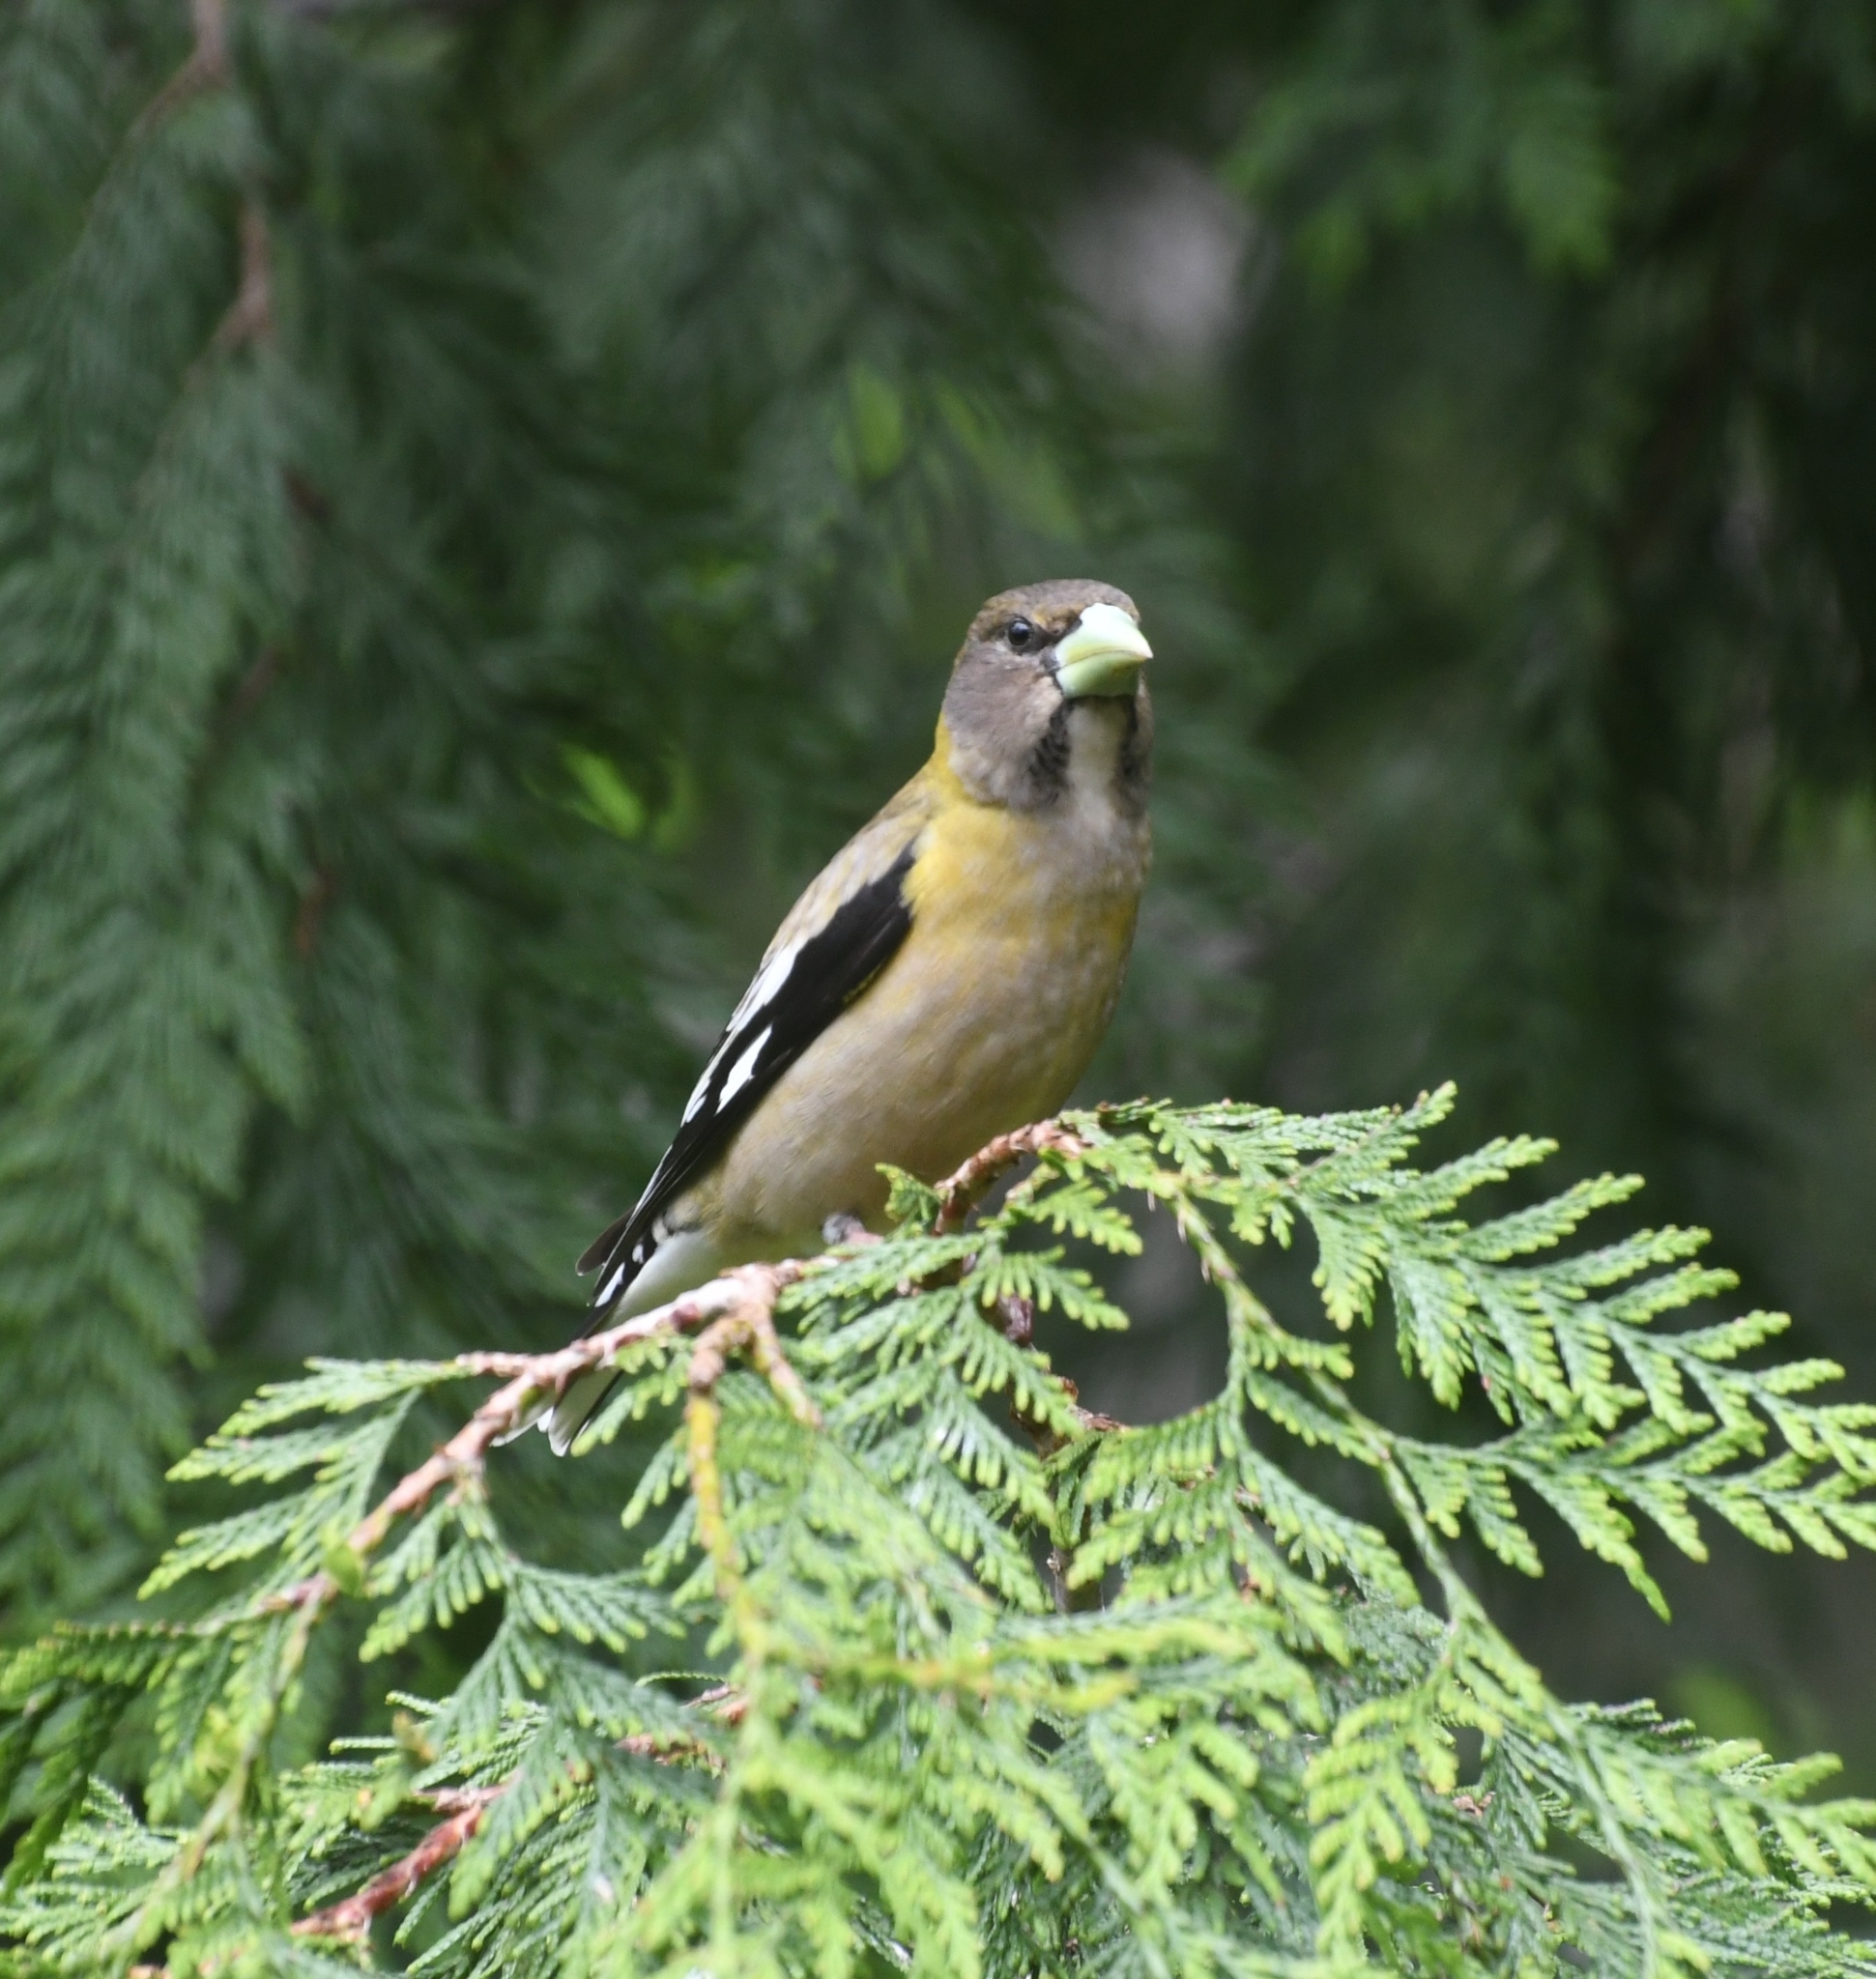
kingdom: Animalia
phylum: Chordata
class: Aves
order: Passeriformes
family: Fringillidae
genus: Hesperiphona
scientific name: Hesperiphona vespertina
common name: Evening grosbeak
